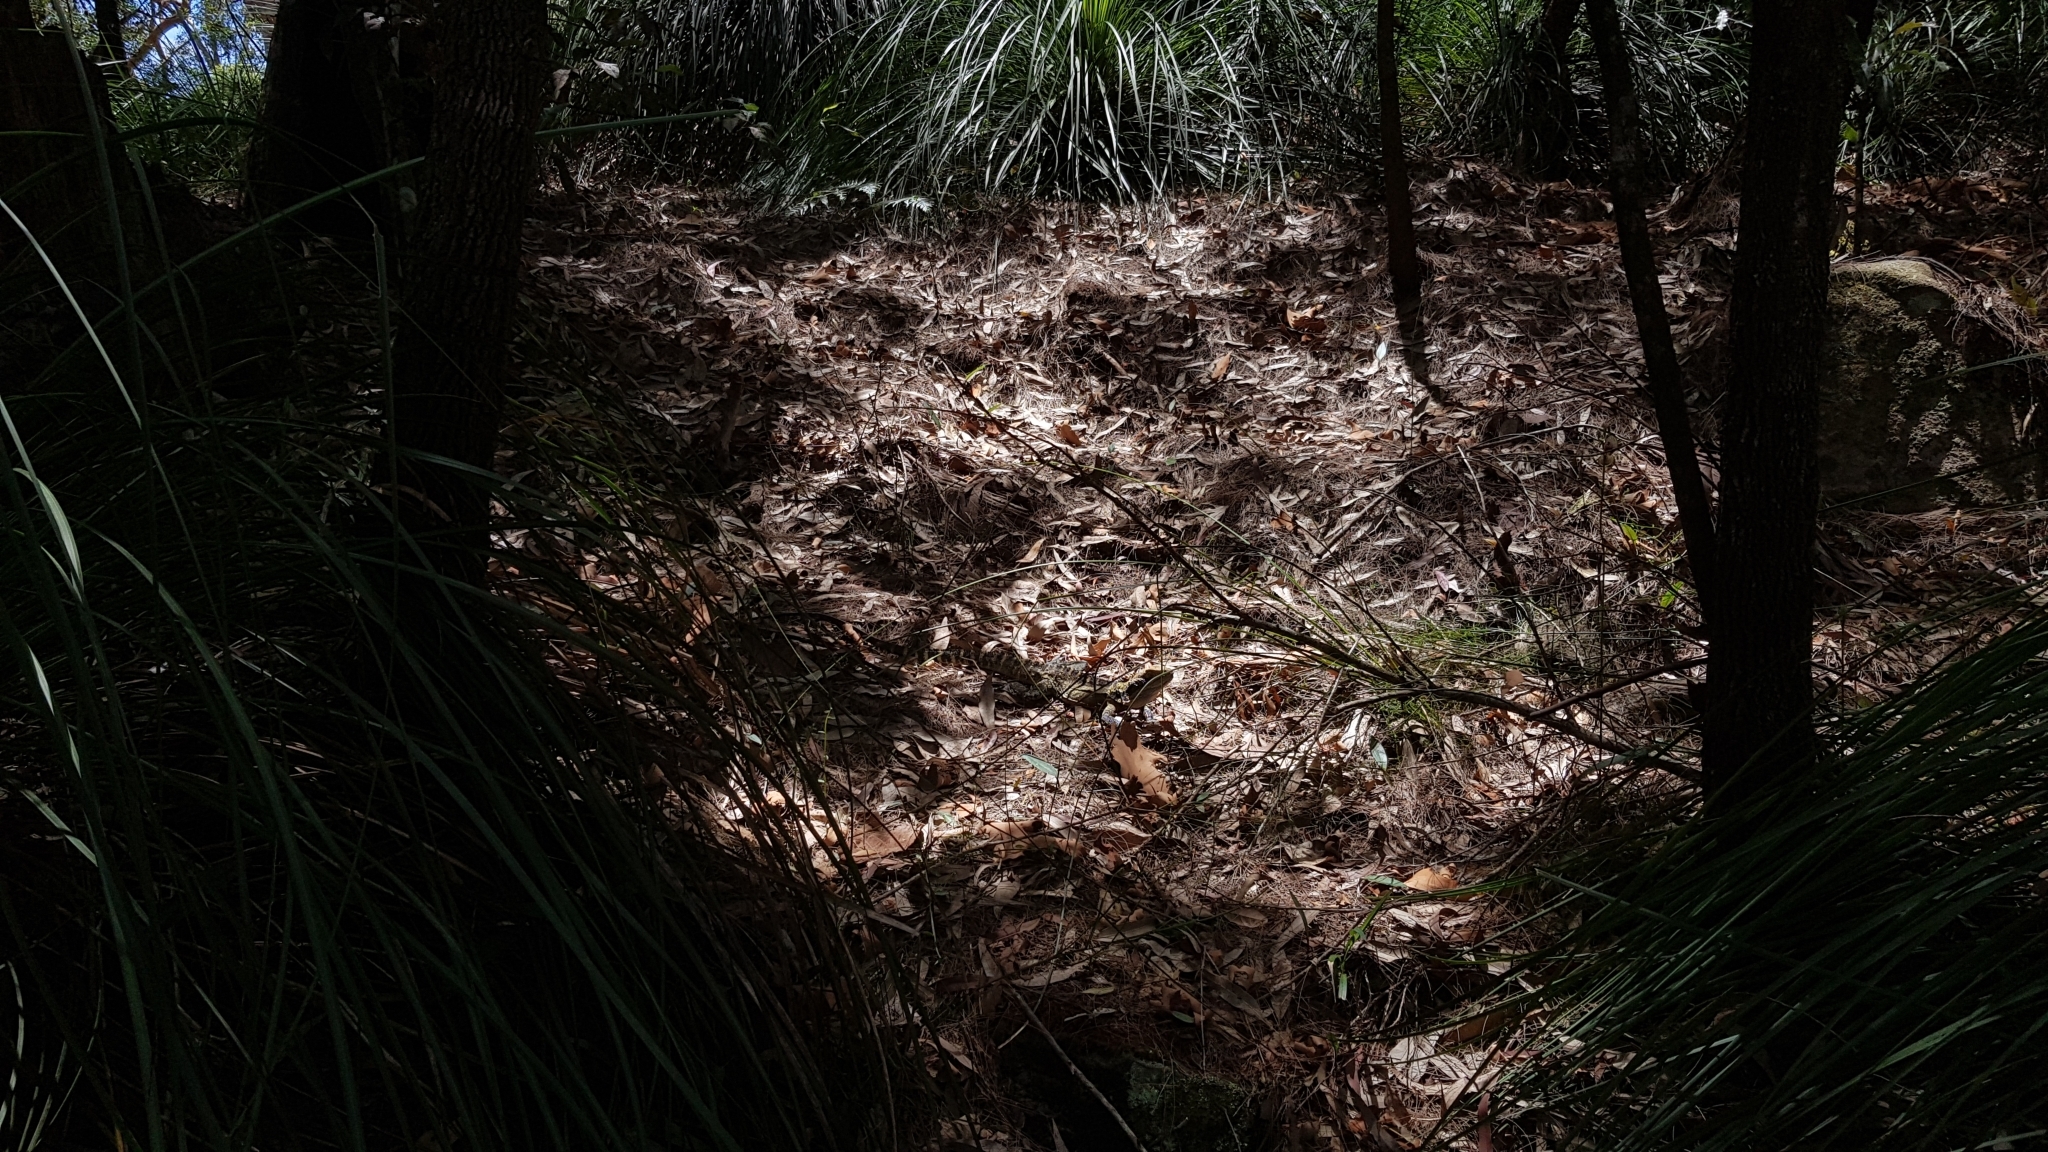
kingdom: Animalia
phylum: Chordata
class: Squamata
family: Agamidae
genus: Intellagama
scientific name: Intellagama lesueurii
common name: Eastern water dragon
